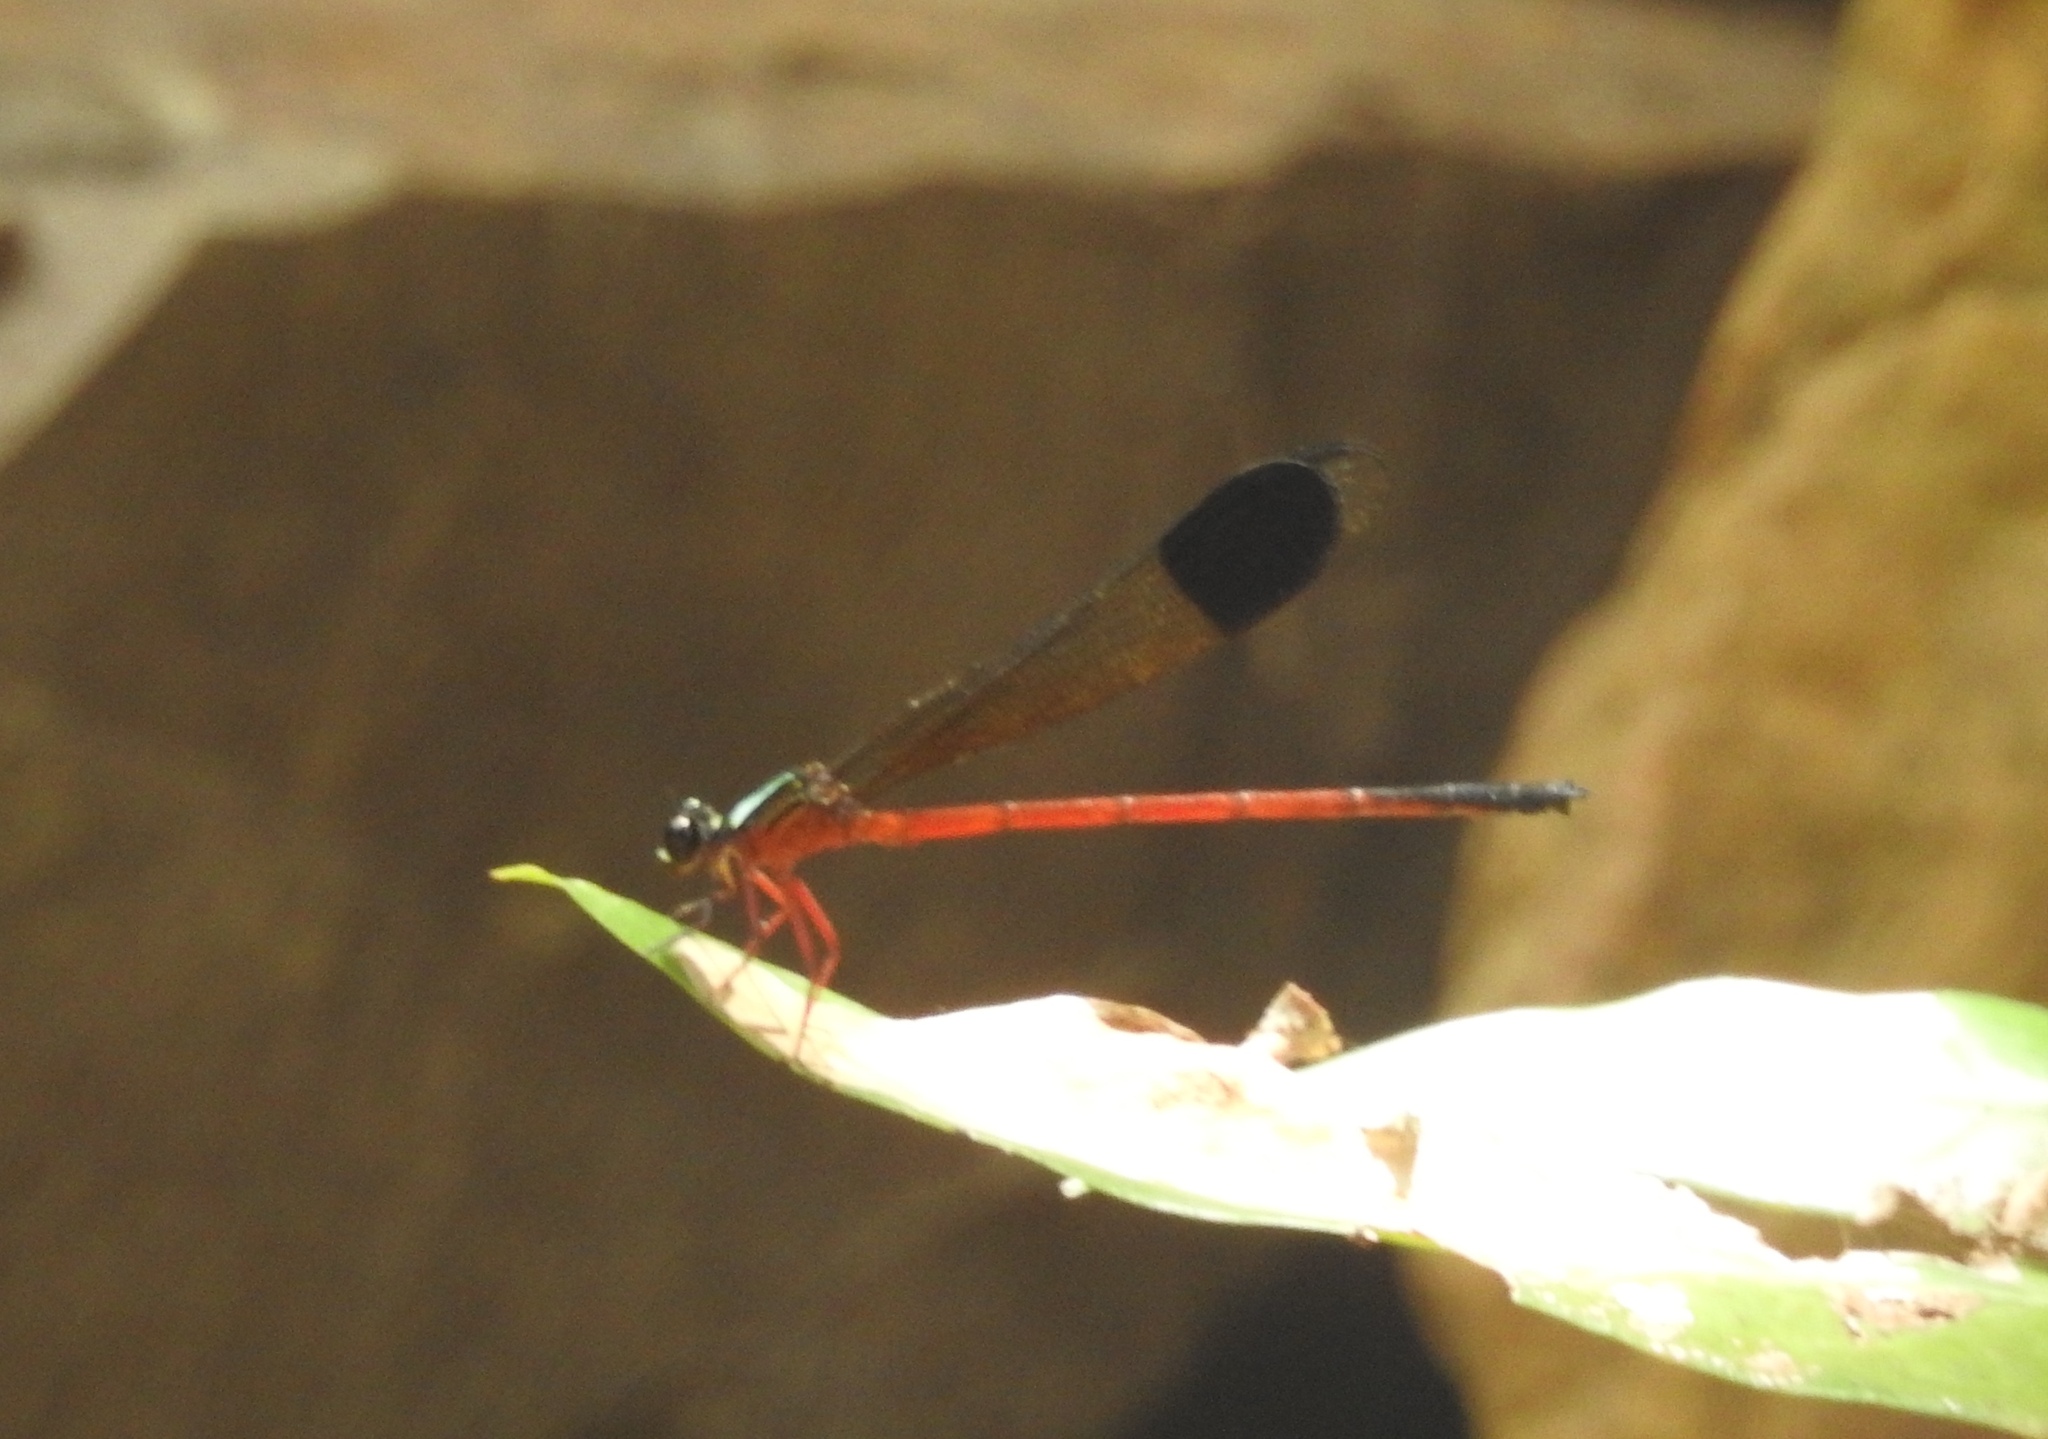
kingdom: Animalia
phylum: Arthropoda
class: Insecta
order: Odonata
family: Euphaeidae
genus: Euphaea
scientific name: Euphaea fraseri
